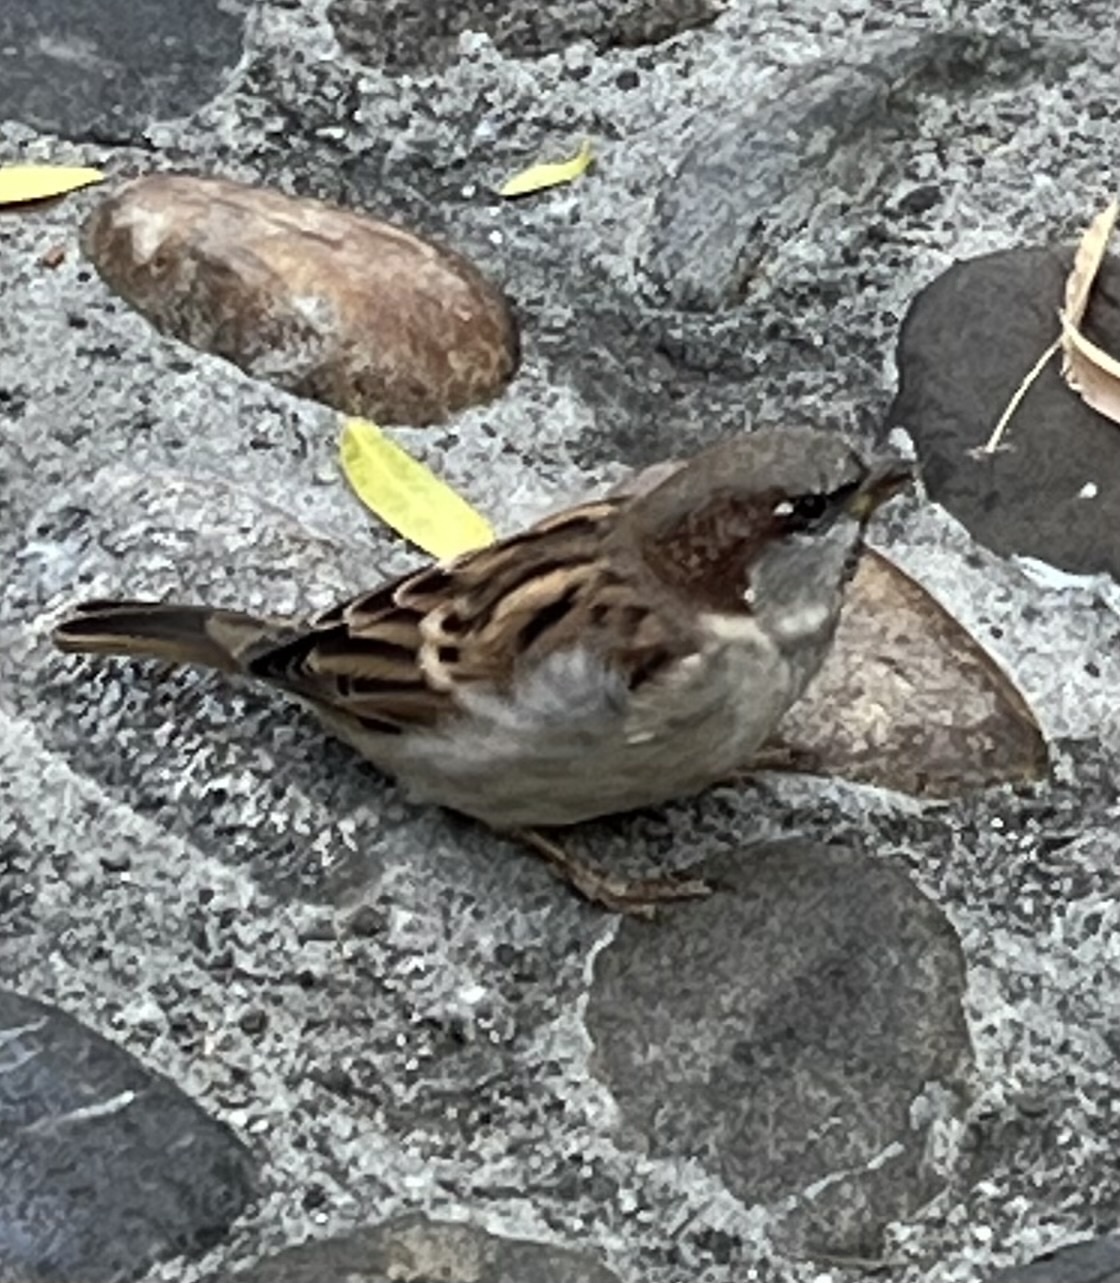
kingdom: Animalia
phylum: Chordata
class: Aves
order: Passeriformes
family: Passeridae
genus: Passer
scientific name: Passer domesticus
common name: House sparrow
